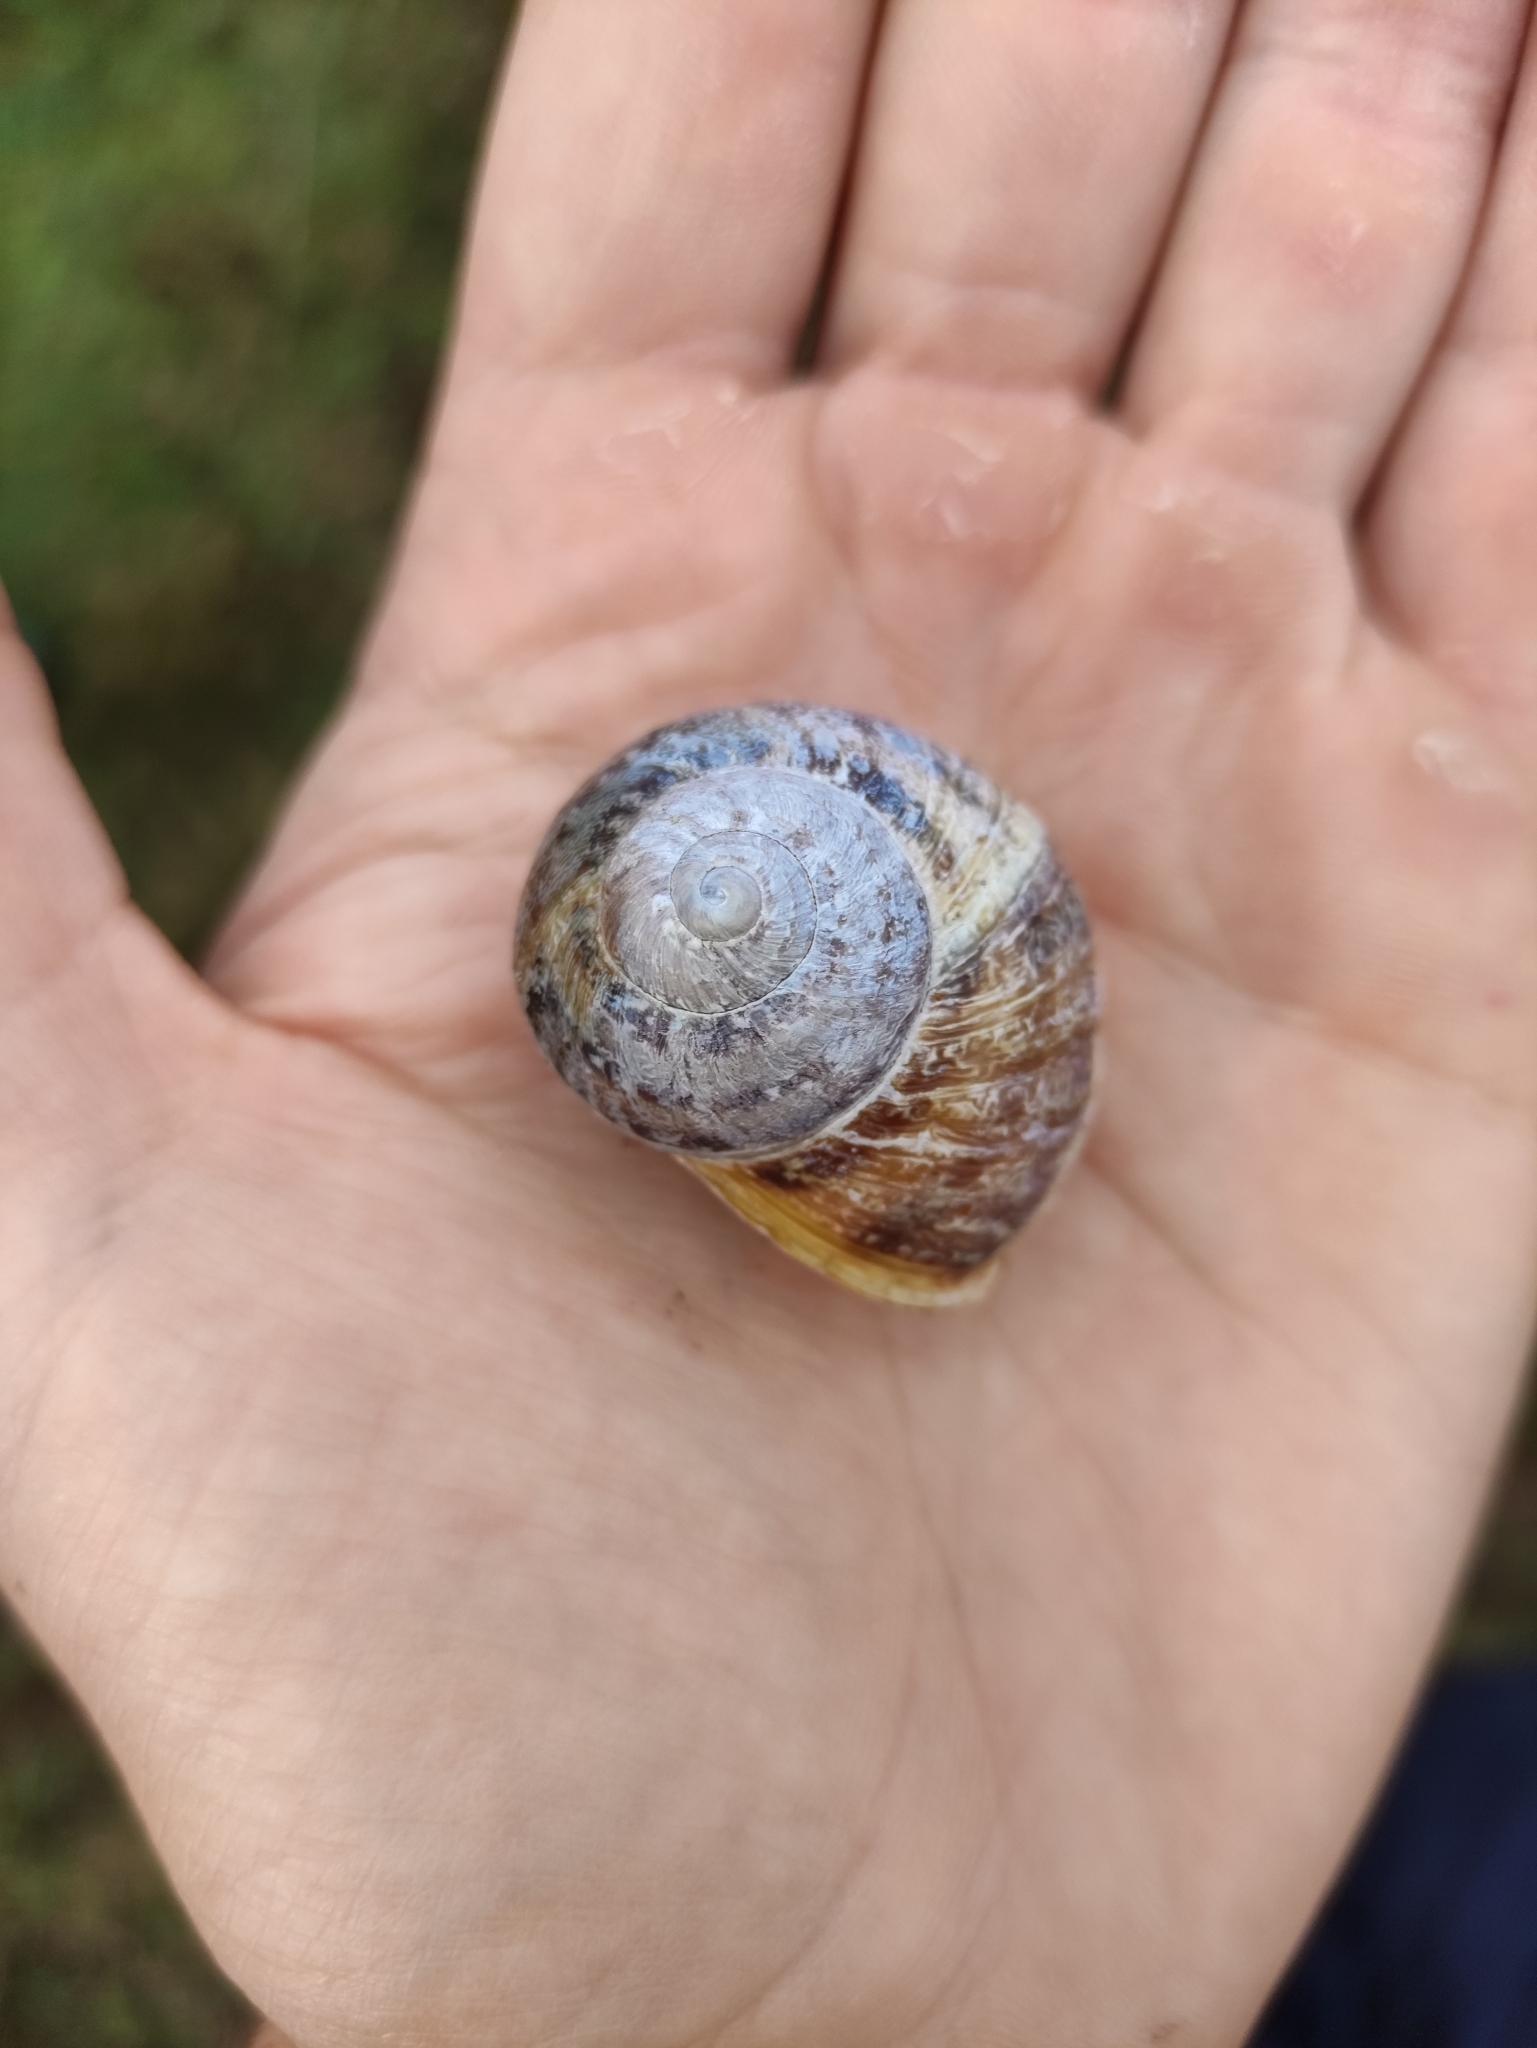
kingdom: Animalia
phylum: Mollusca
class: Gastropoda
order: Stylommatophora
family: Helicidae
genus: Cornu
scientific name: Cornu aspersum
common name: Brown garden snail
